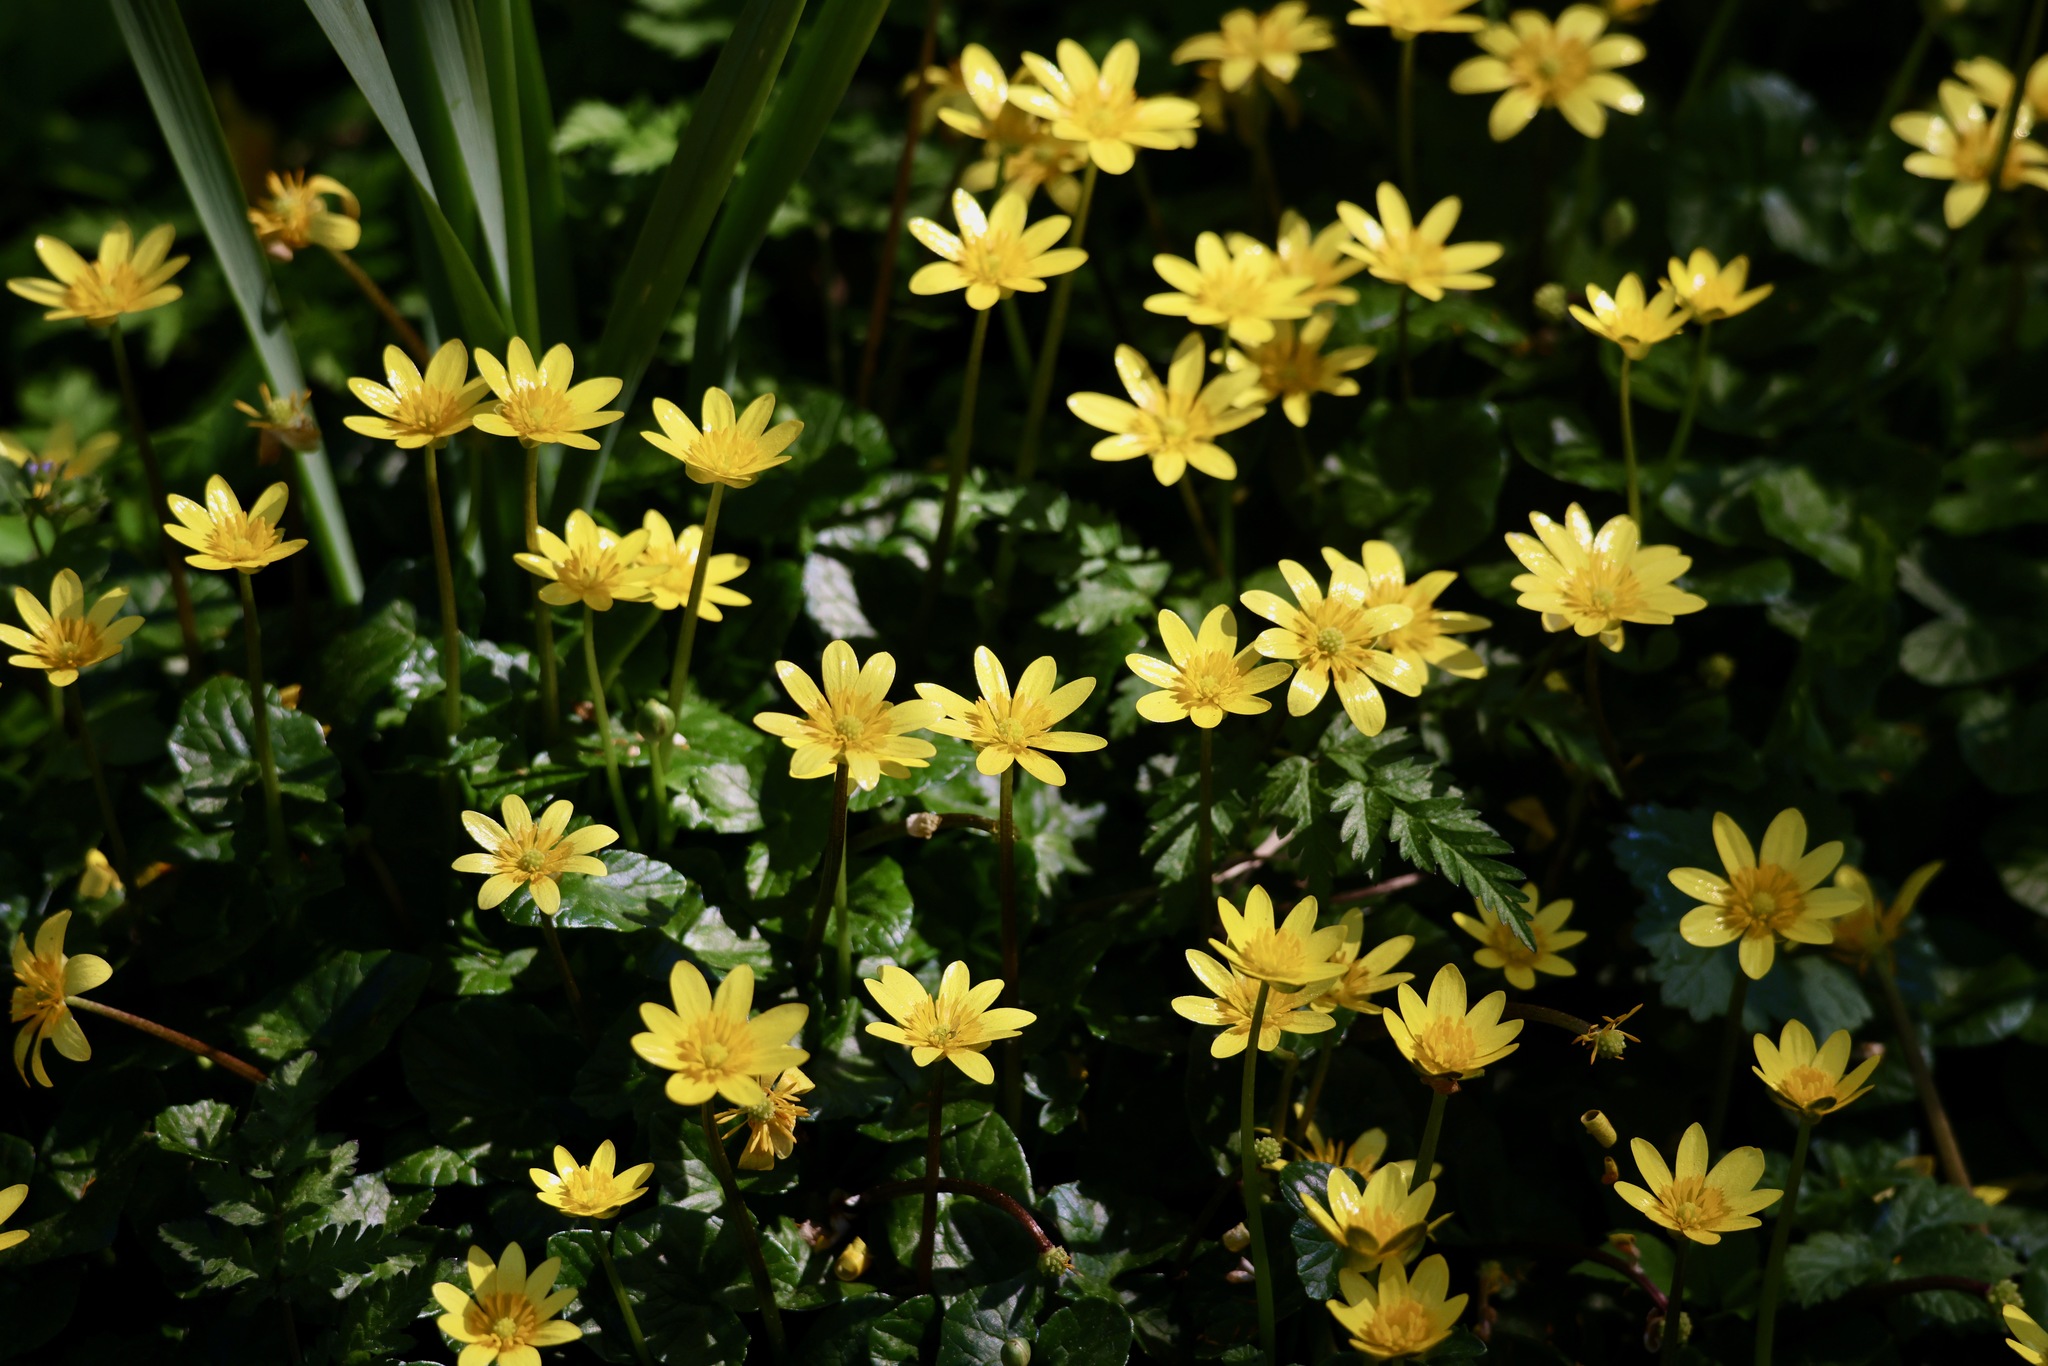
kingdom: Plantae
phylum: Tracheophyta
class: Magnoliopsida
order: Ranunculales
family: Ranunculaceae
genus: Ficaria
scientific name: Ficaria verna
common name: Lesser celandine
